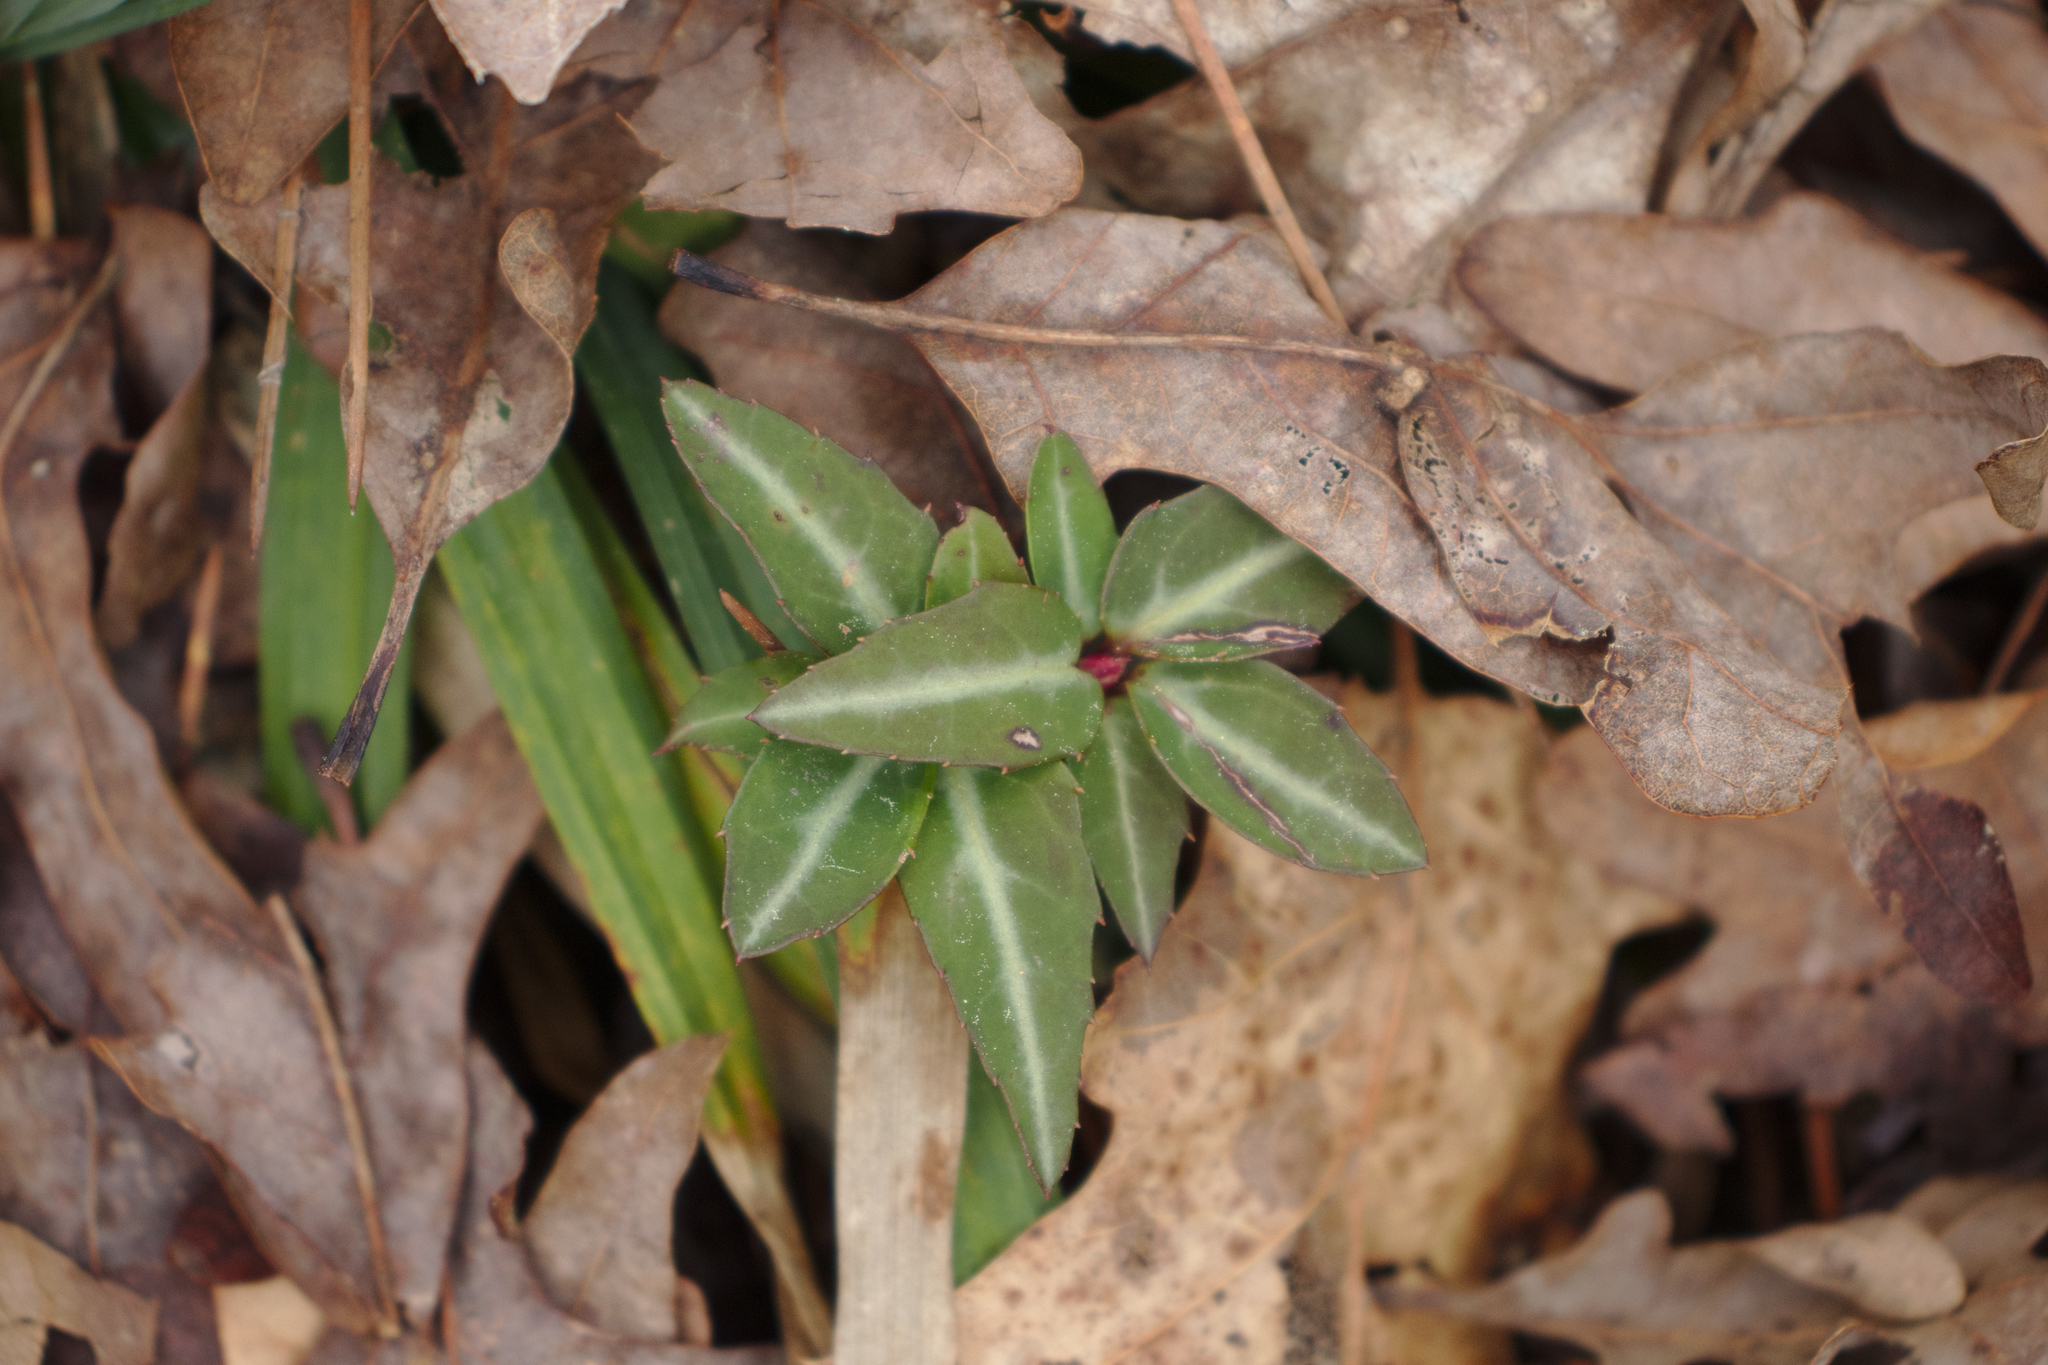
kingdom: Plantae
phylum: Tracheophyta
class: Magnoliopsida
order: Ericales
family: Ericaceae
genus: Chimaphila
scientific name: Chimaphila maculata
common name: Spotted pipsissewa
